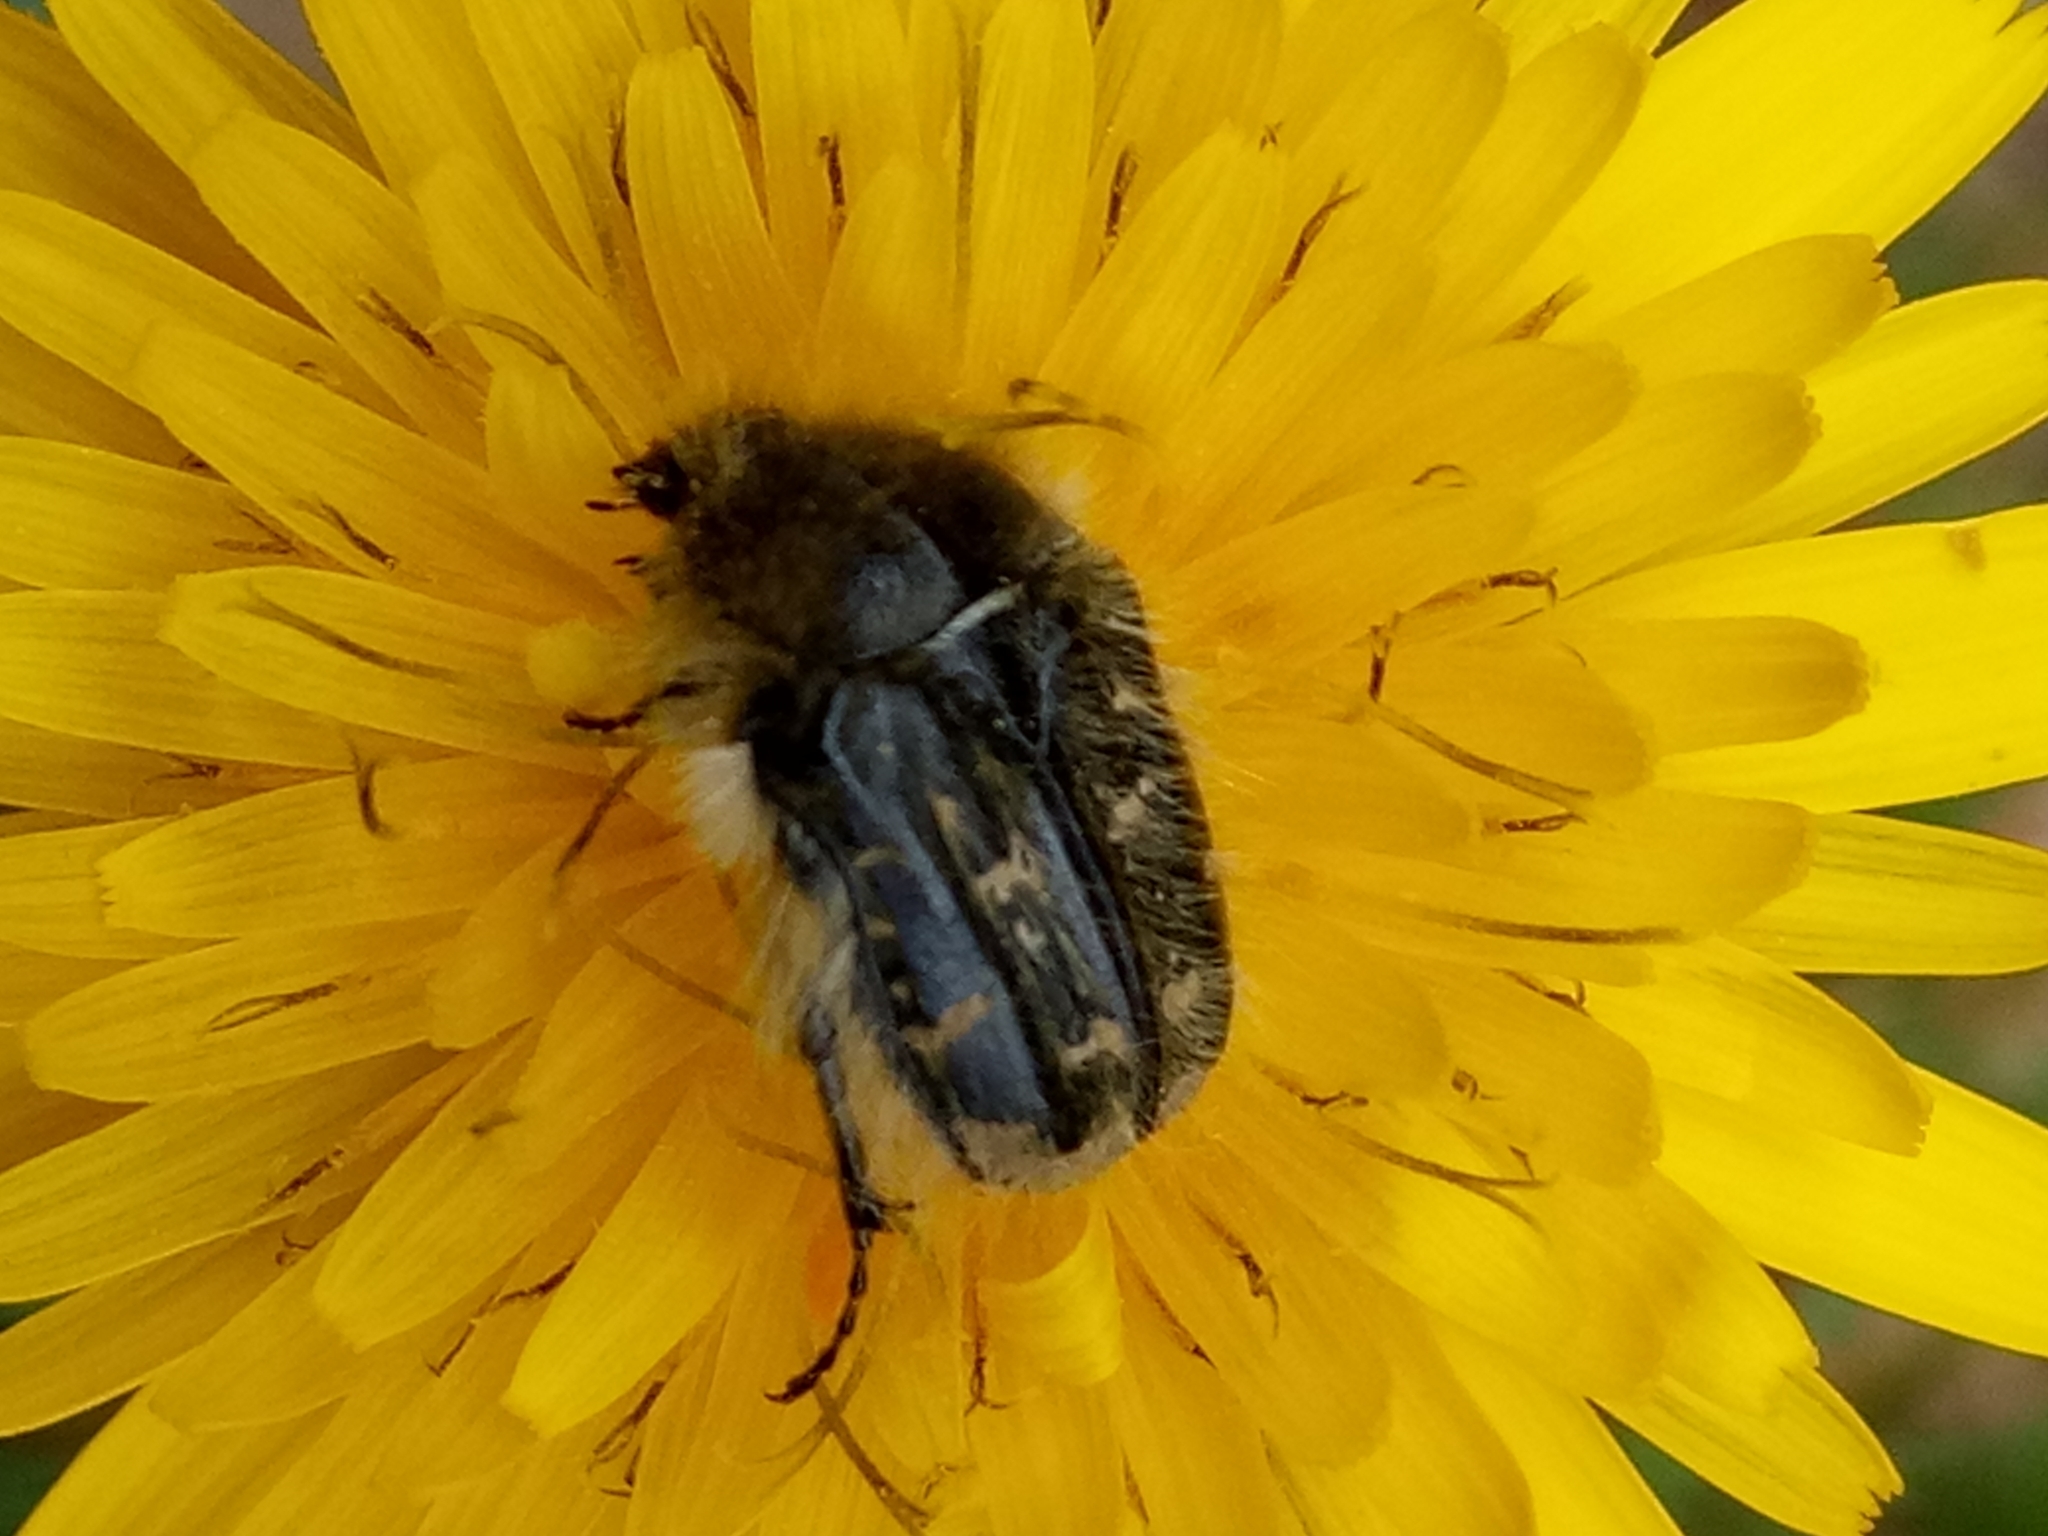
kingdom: Animalia
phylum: Arthropoda
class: Insecta
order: Coleoptera
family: Scarabaeidae
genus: Tropinota
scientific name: Tropinota squalida
